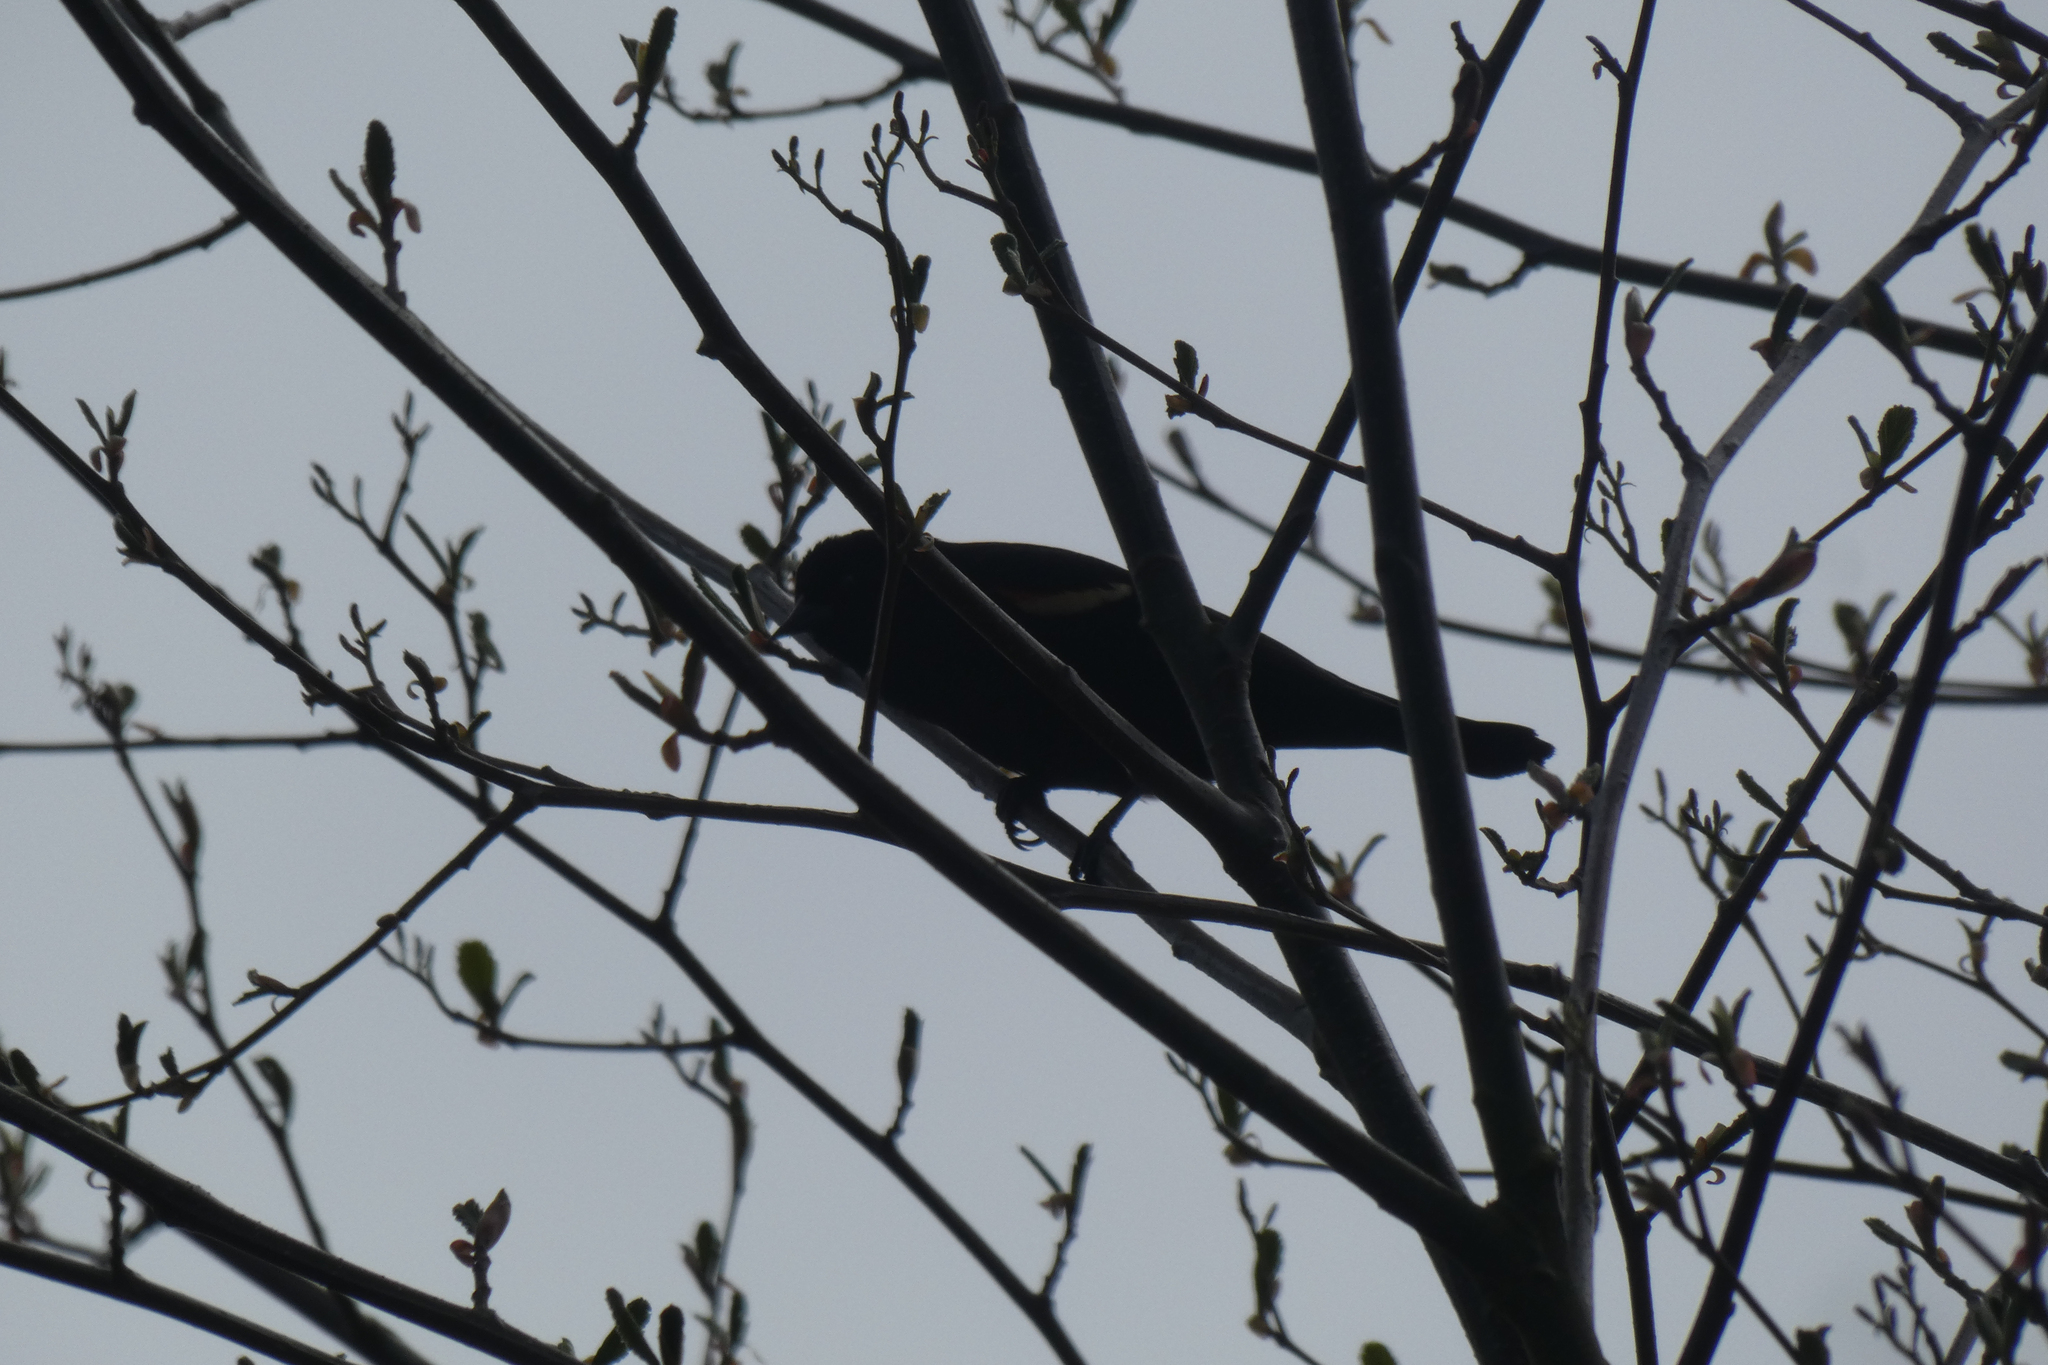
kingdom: Animalia
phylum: Chordata
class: Aves
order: Passeriformes
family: Icteridae
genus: Agelaius
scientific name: Agelaius phoeniceus
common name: Red-winged blackbird
